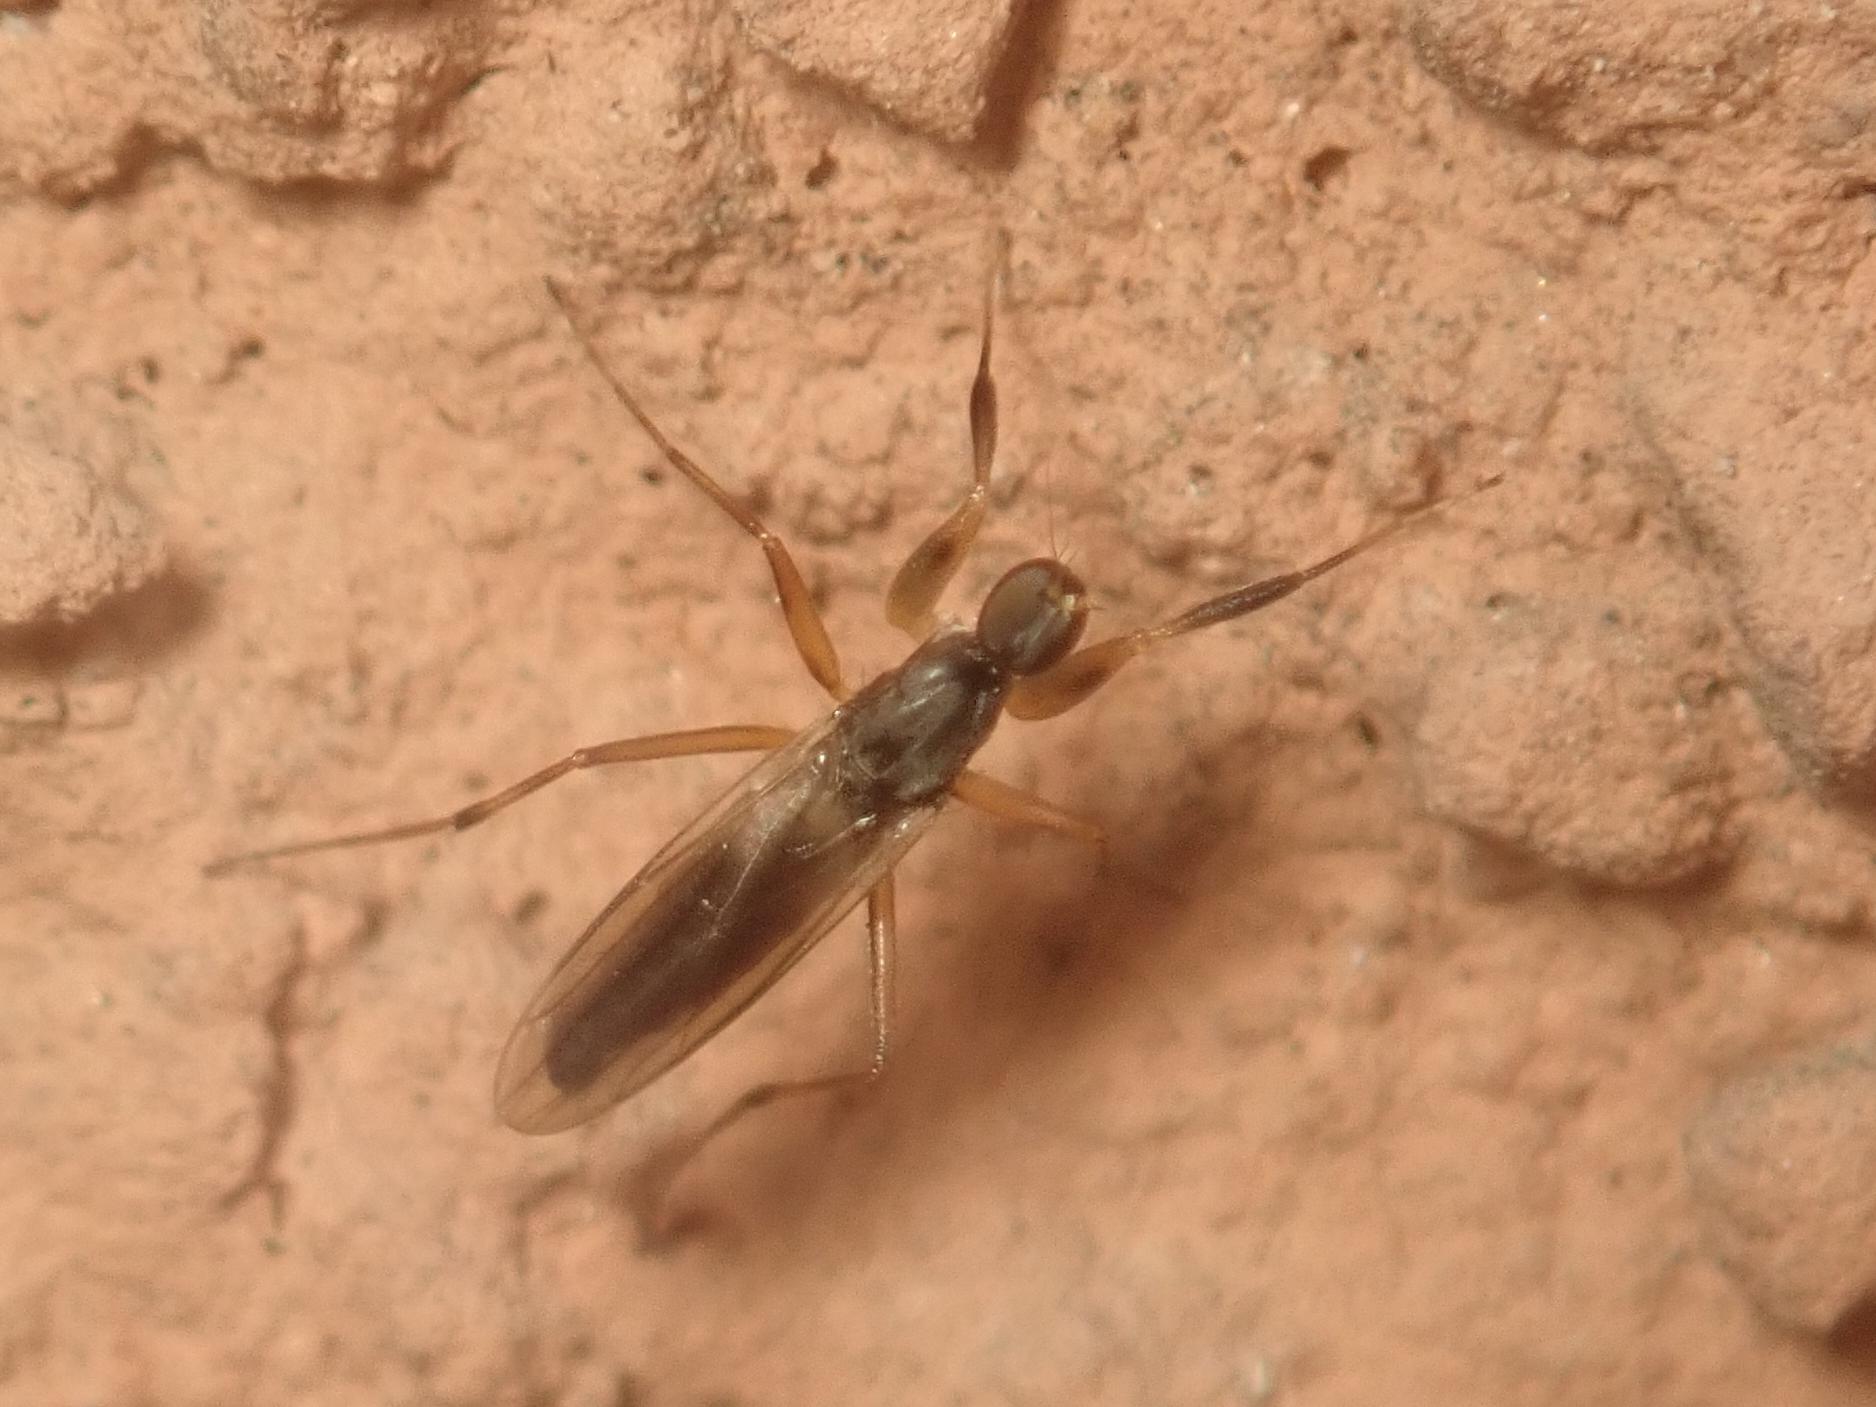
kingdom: Animalia
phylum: Arthropoda
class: Insecta
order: Diptera
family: Hybotidae
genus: Tachypeza
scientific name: Tachypeza nubila
